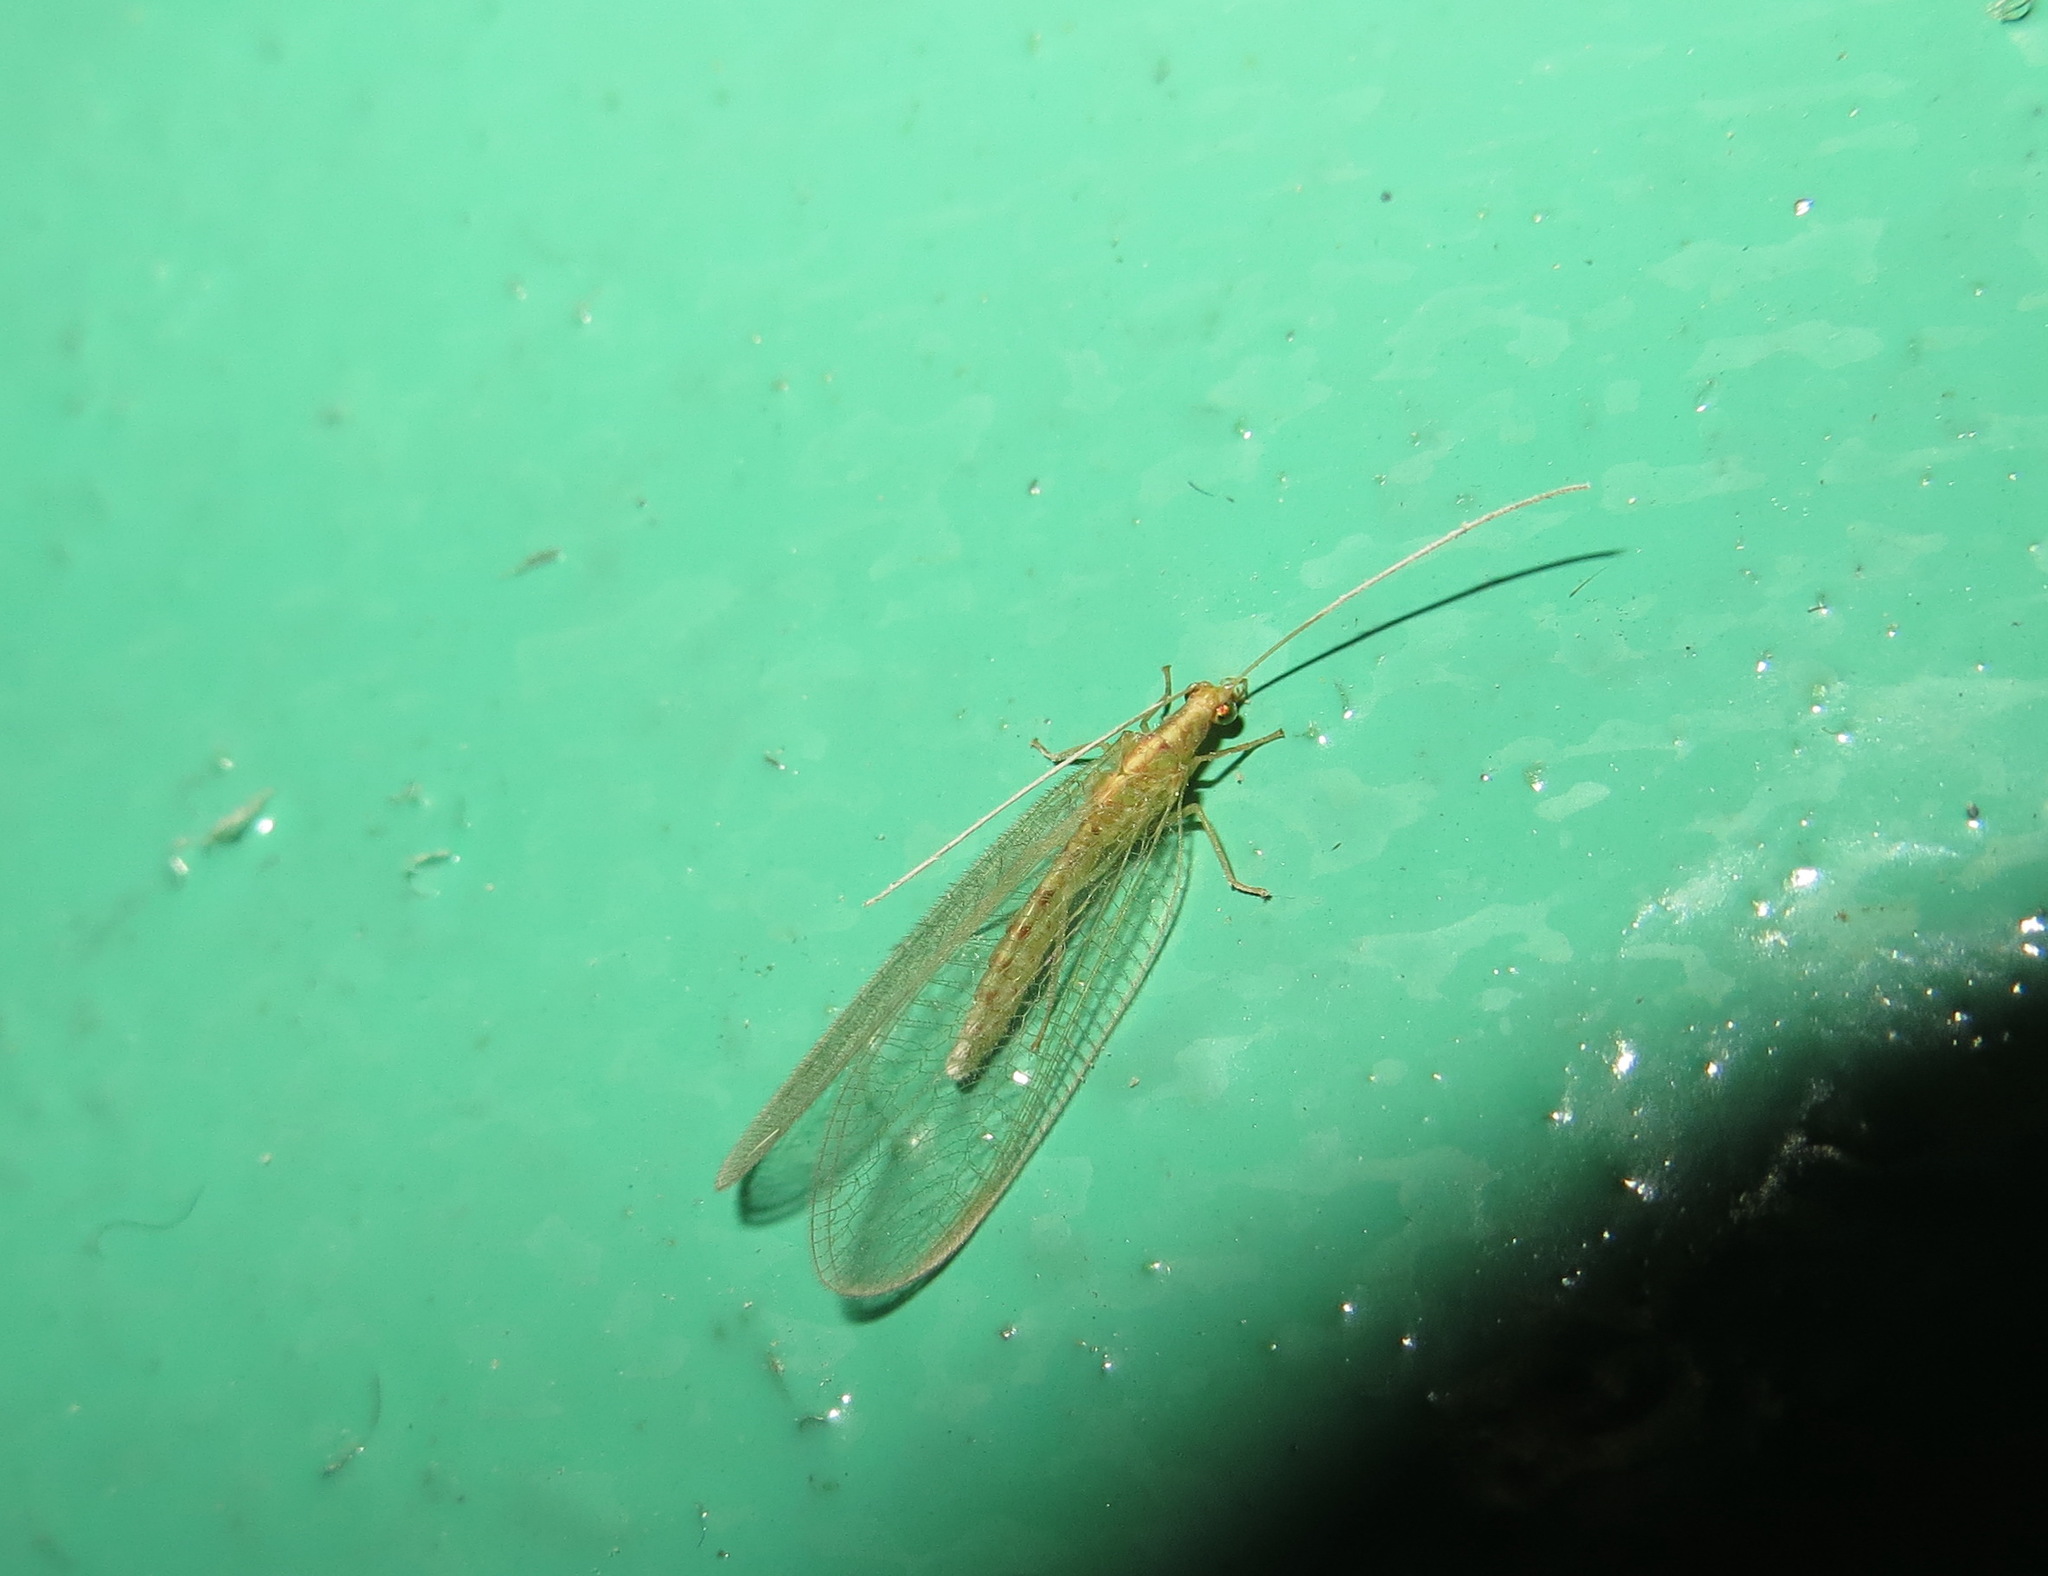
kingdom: Animalia
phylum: Arthropoda
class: Insecta
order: Neuroptera
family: Chrysopidae
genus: Chrysoperla
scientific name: Chrysoperla
